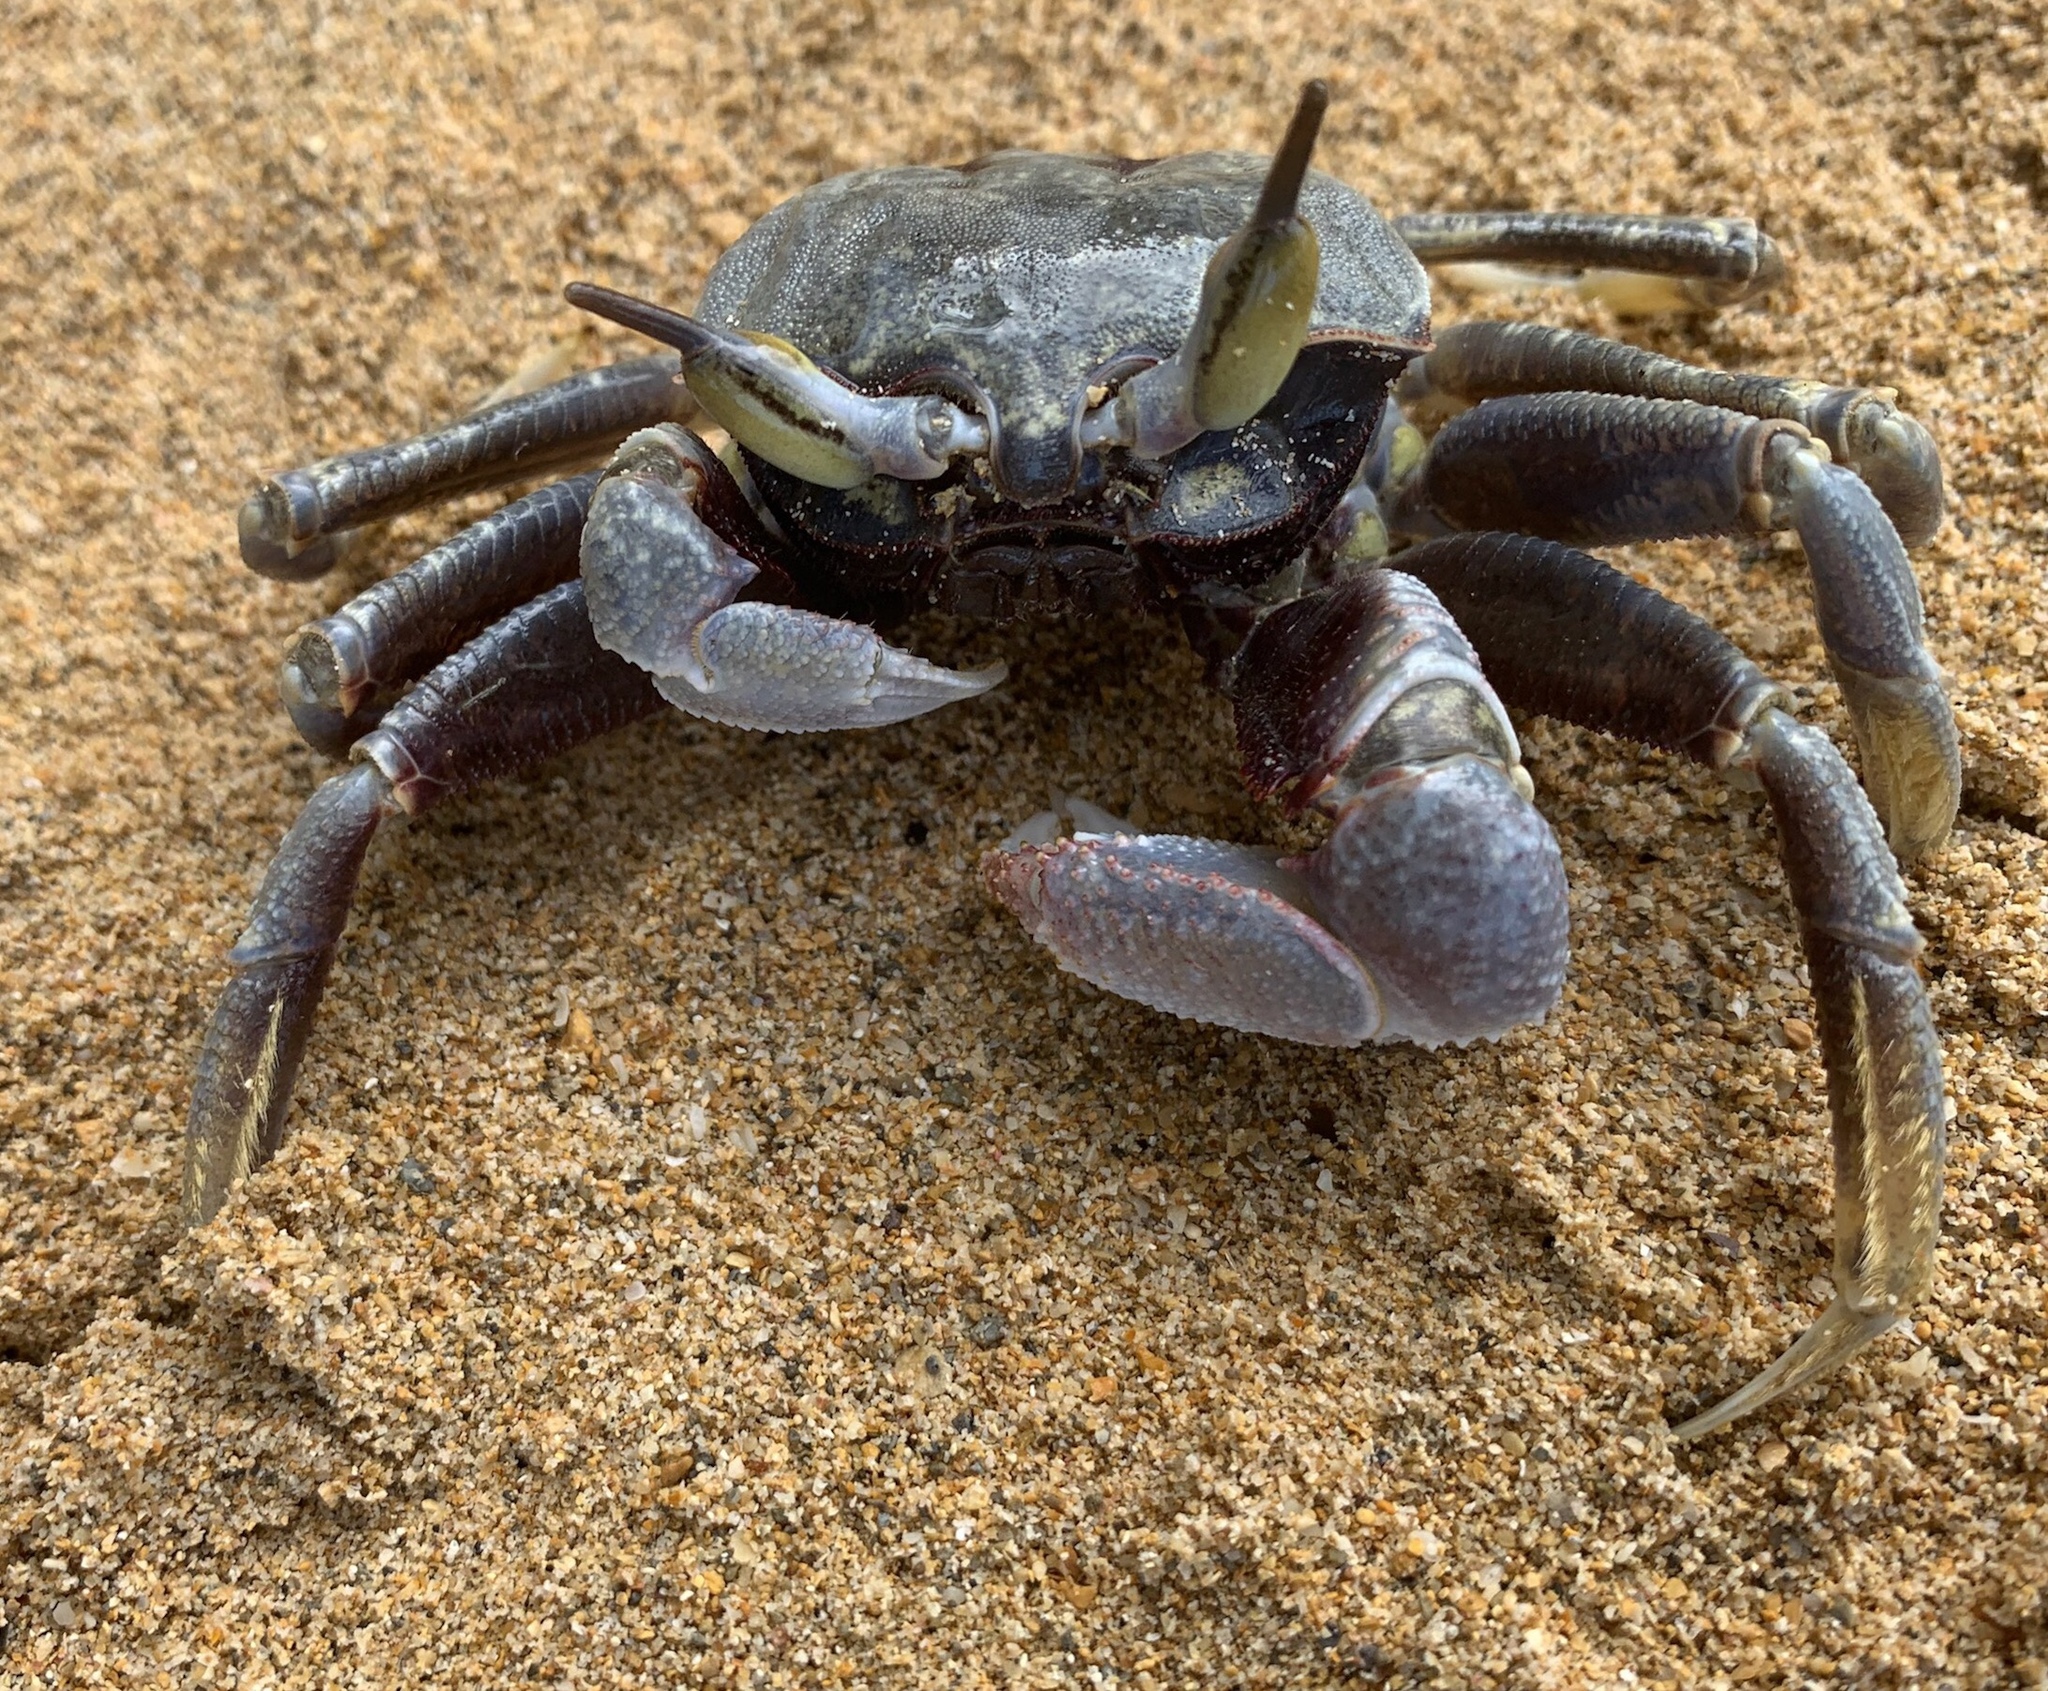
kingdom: Animalia
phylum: Arthropoda
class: Malacostraca
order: Decapoda
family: Ocypodidae
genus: Ocypode
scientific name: Ocypode ceratophthalmus
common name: Indo-pacific ghost crab
